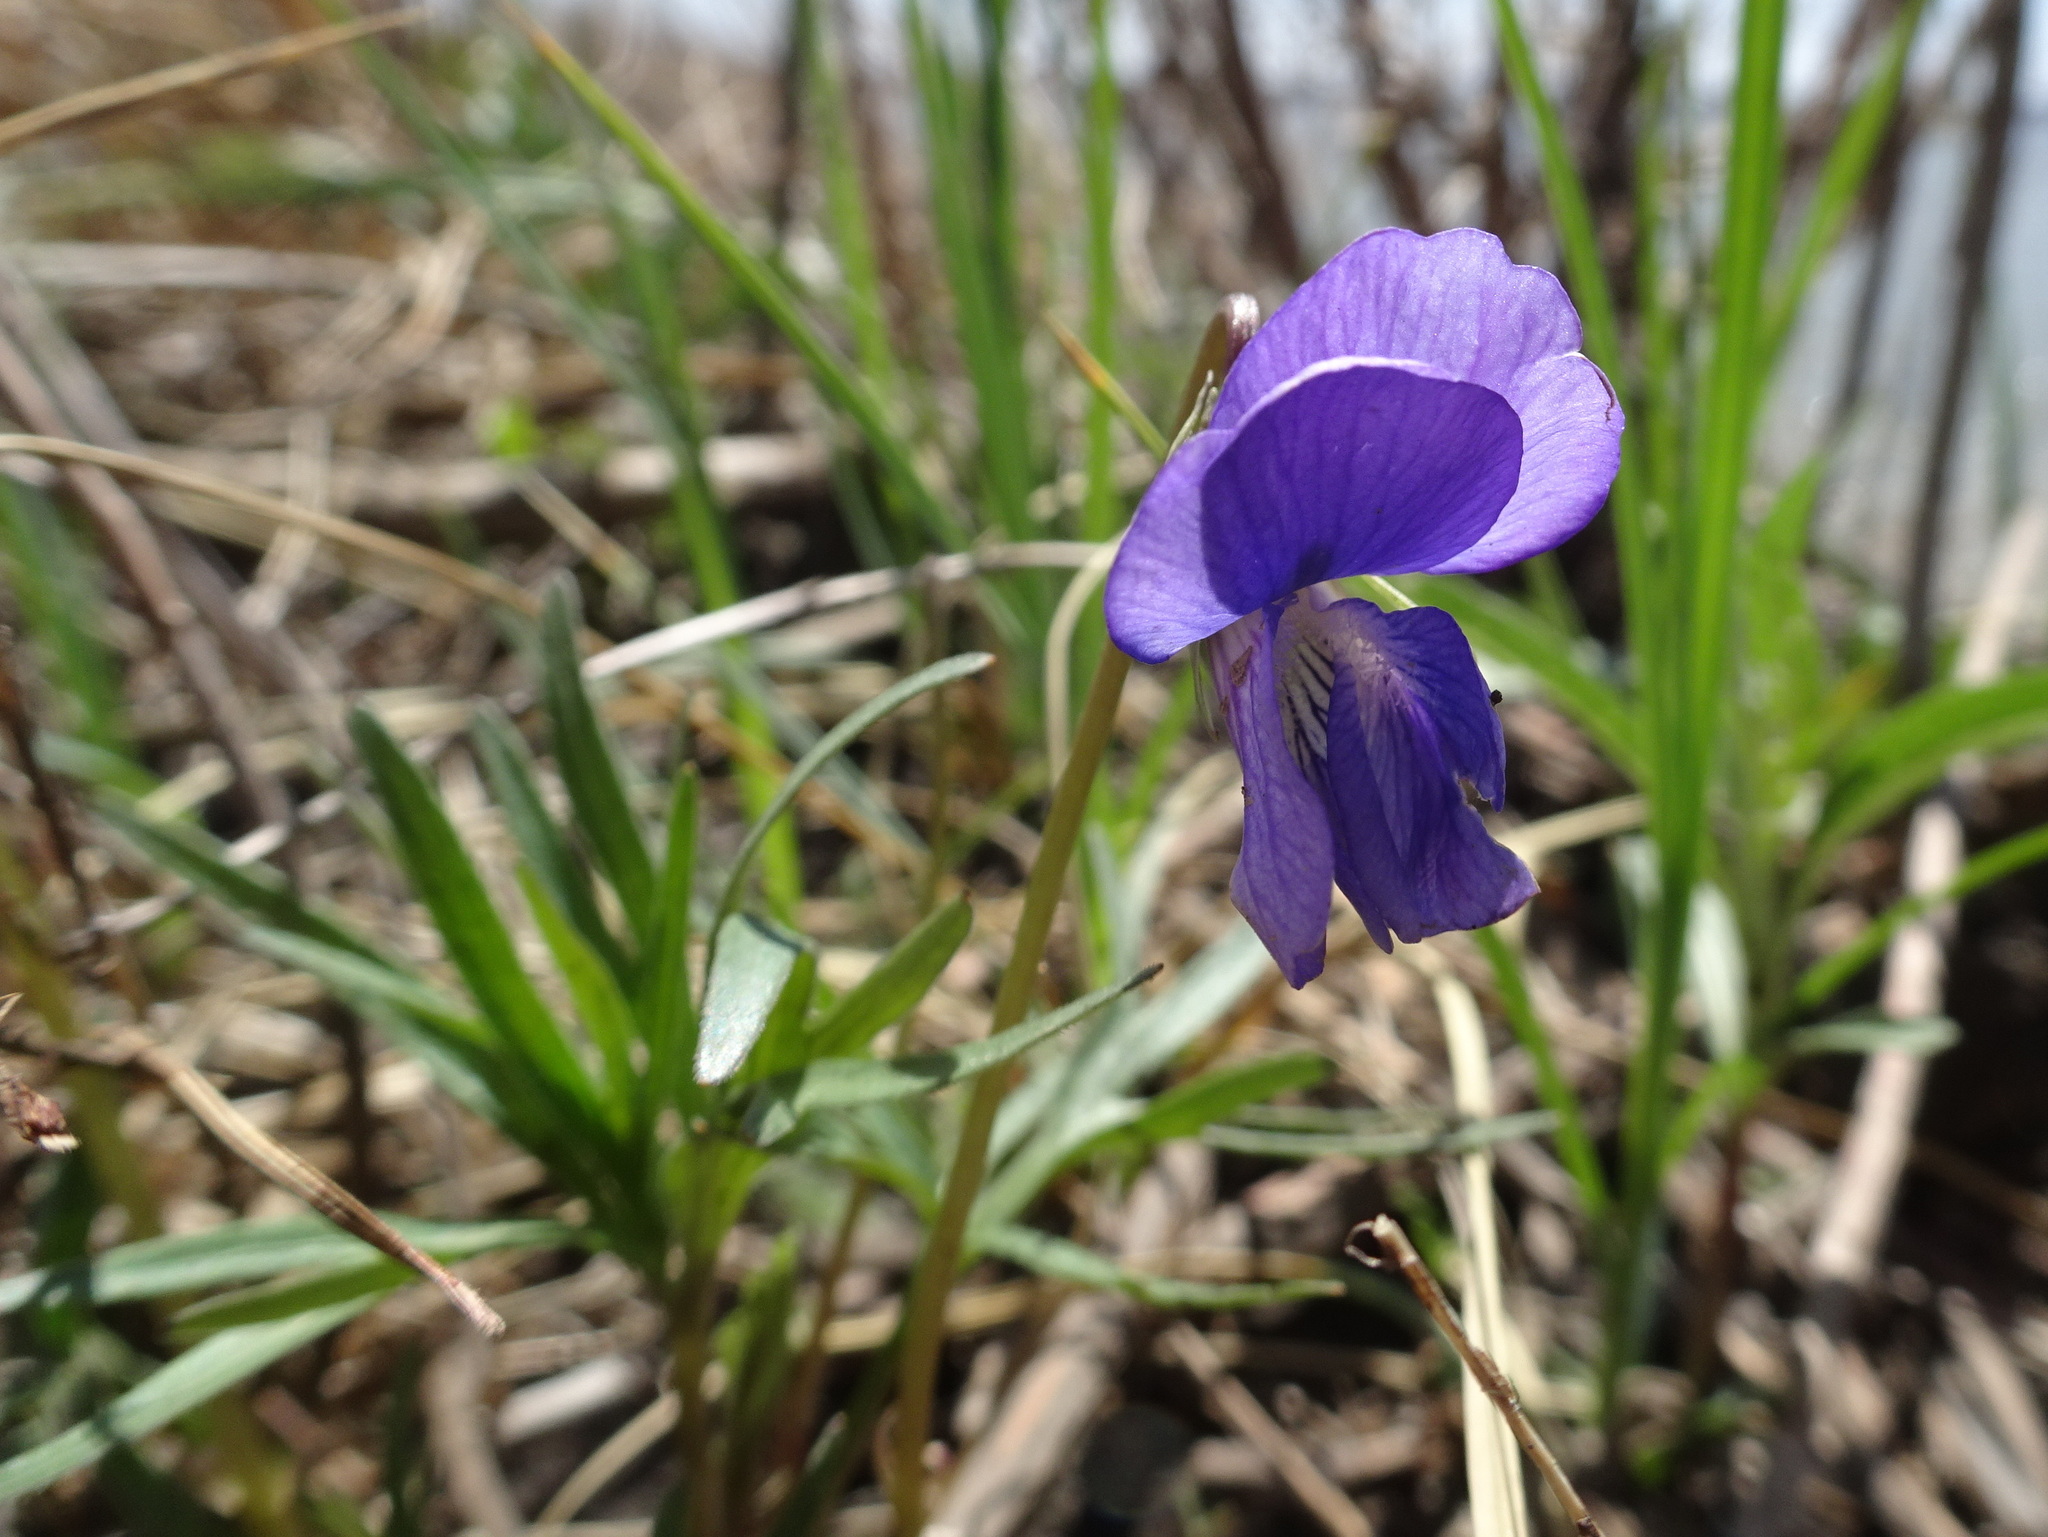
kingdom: Plantae
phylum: Tracheophyta
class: Magnoliopsida
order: Malpighiales
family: Violaceae
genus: Viola
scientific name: Viola pedatifida
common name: Prairie violet
